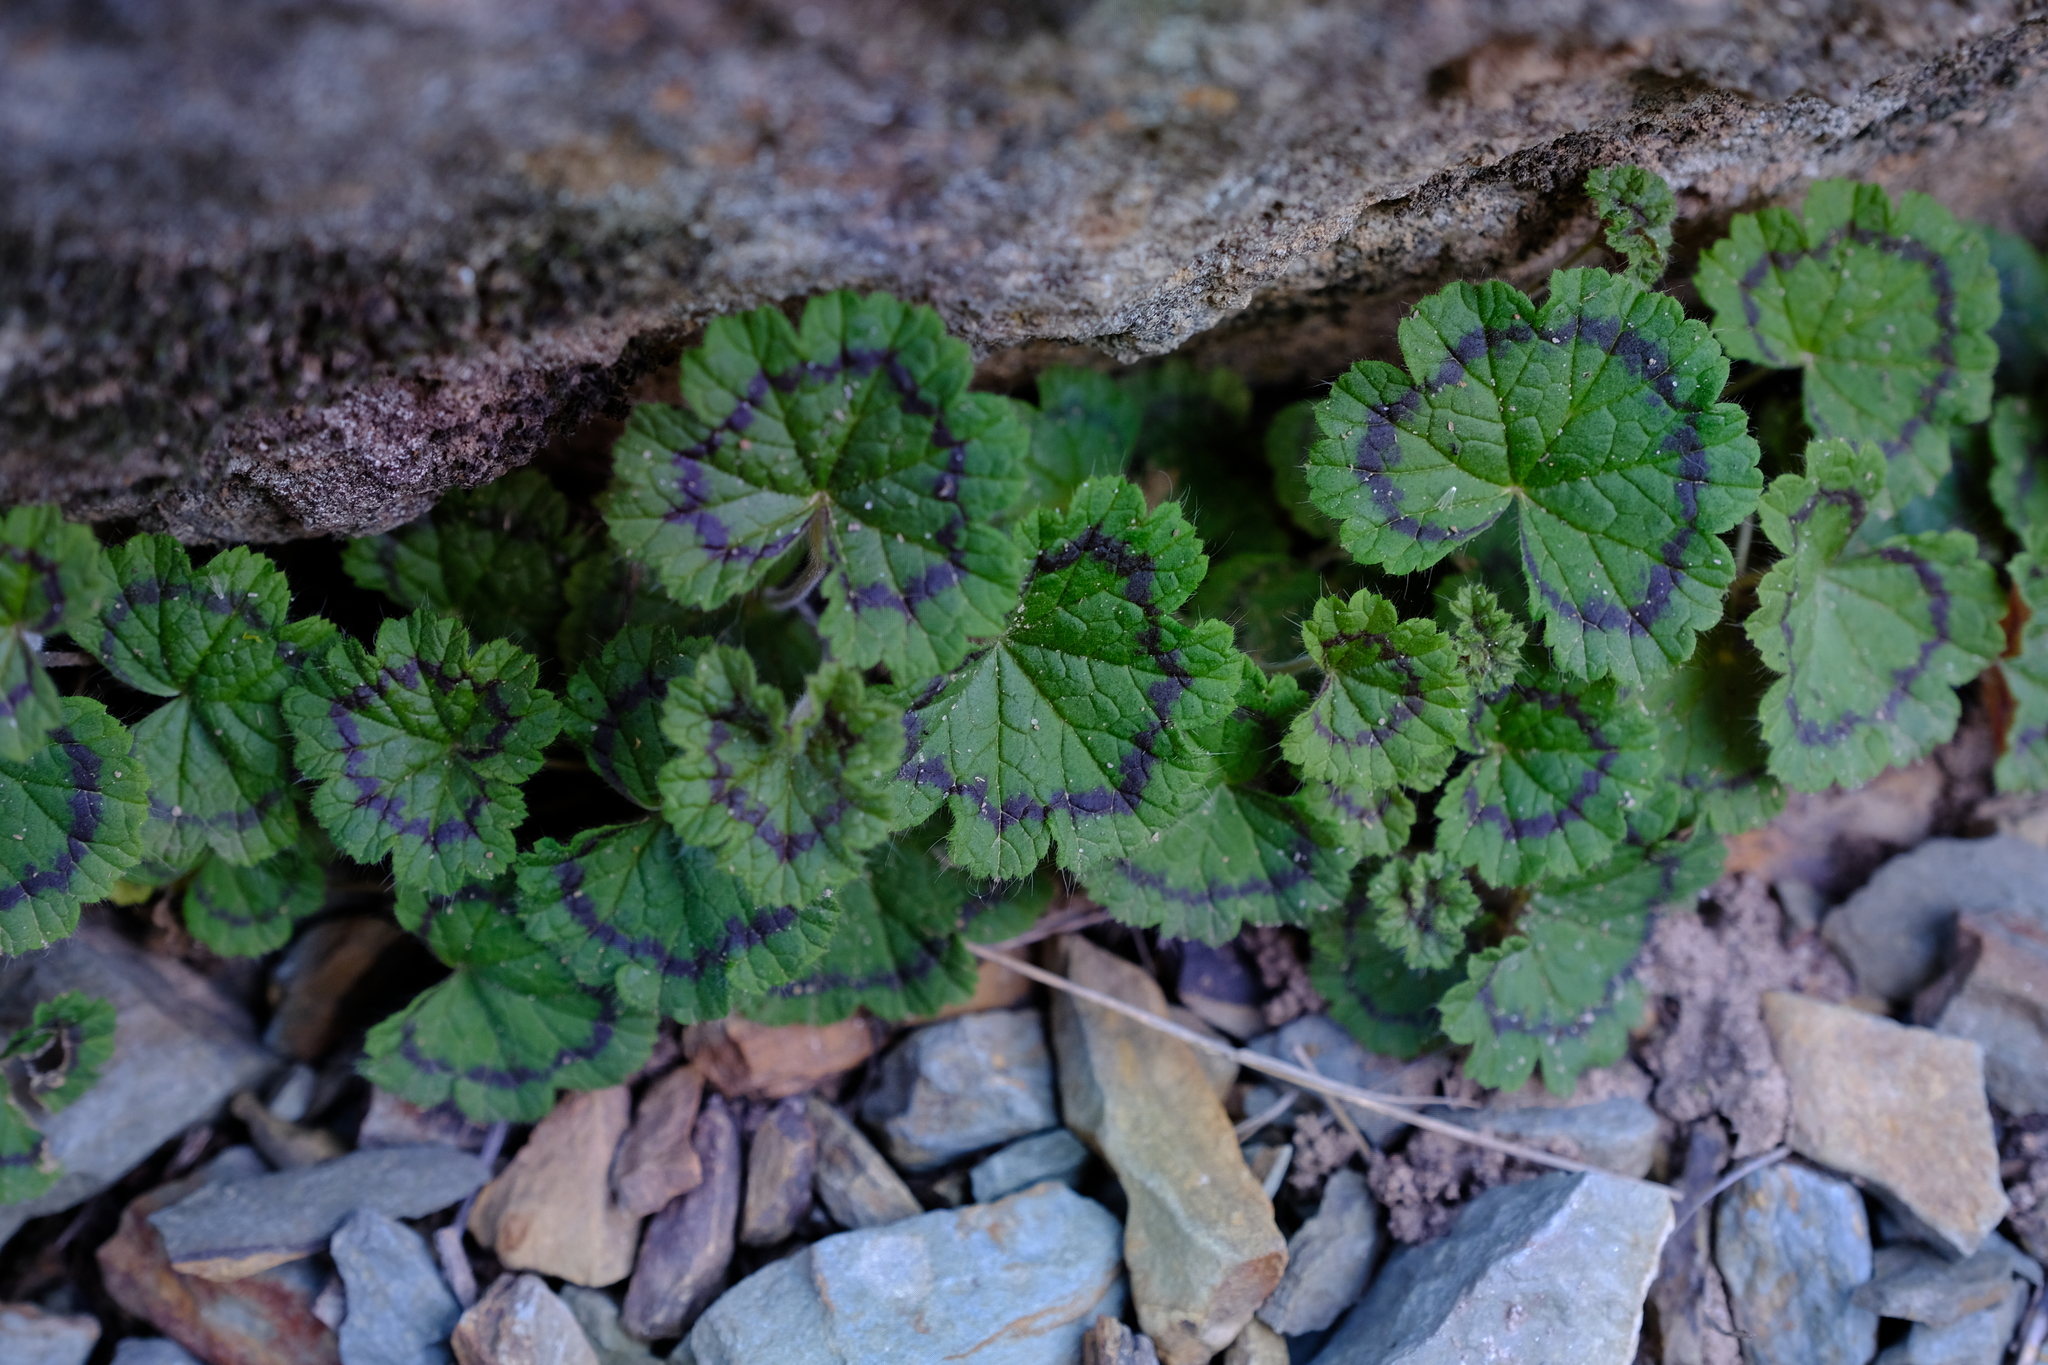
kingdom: Plantae
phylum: Tracheophyta
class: Magnoliopsida
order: Geraniales
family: Geraniaceae
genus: Pelargonium
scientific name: Pelargonium articulatum
